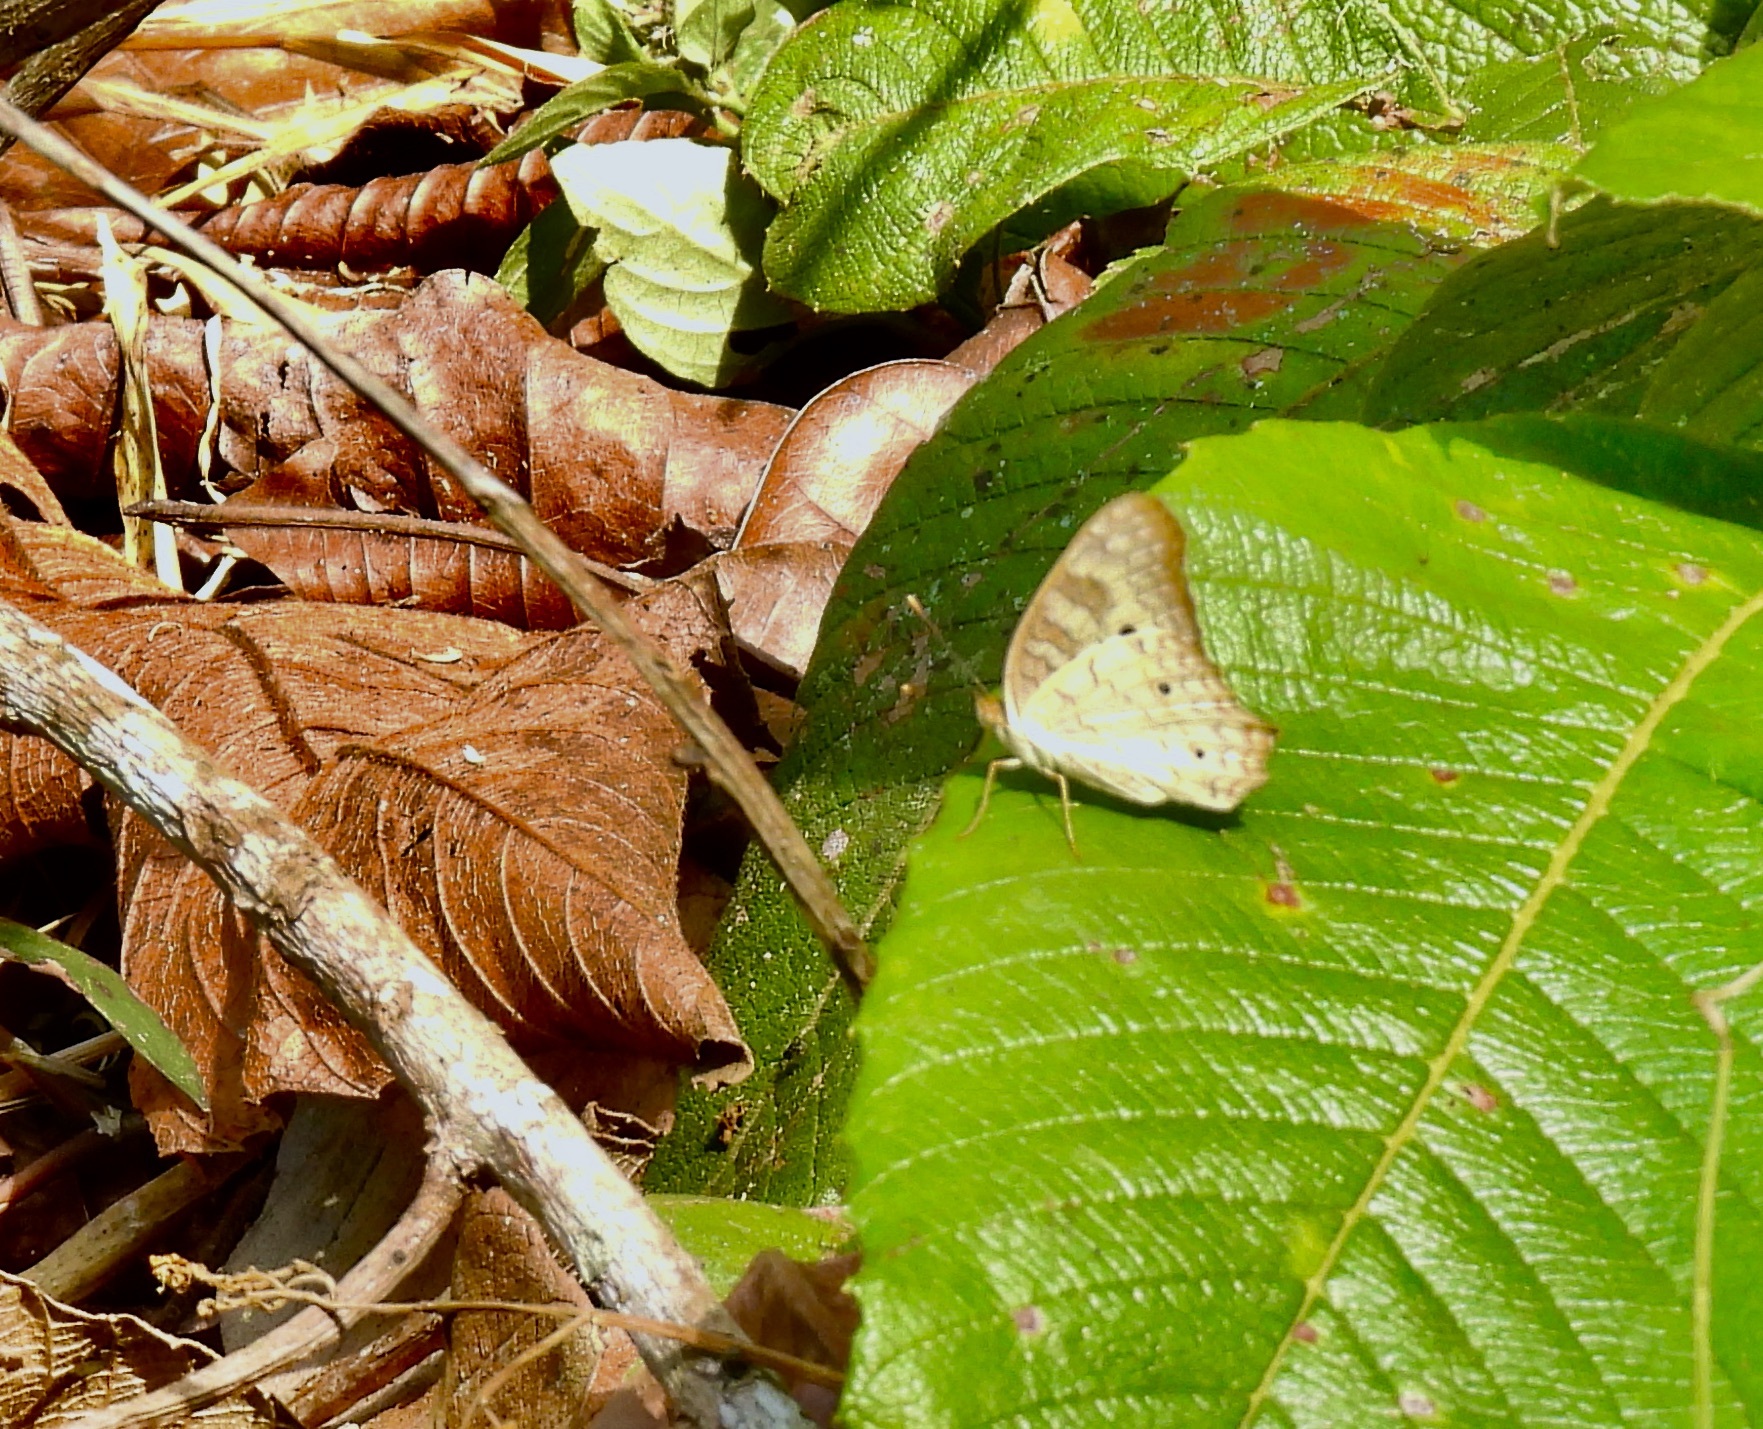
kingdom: Animalia
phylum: Arthropoda
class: Insecta
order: Lepidoptera
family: Nymphalidae
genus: Anartia
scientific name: Anartia jatrophae
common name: White peacock
